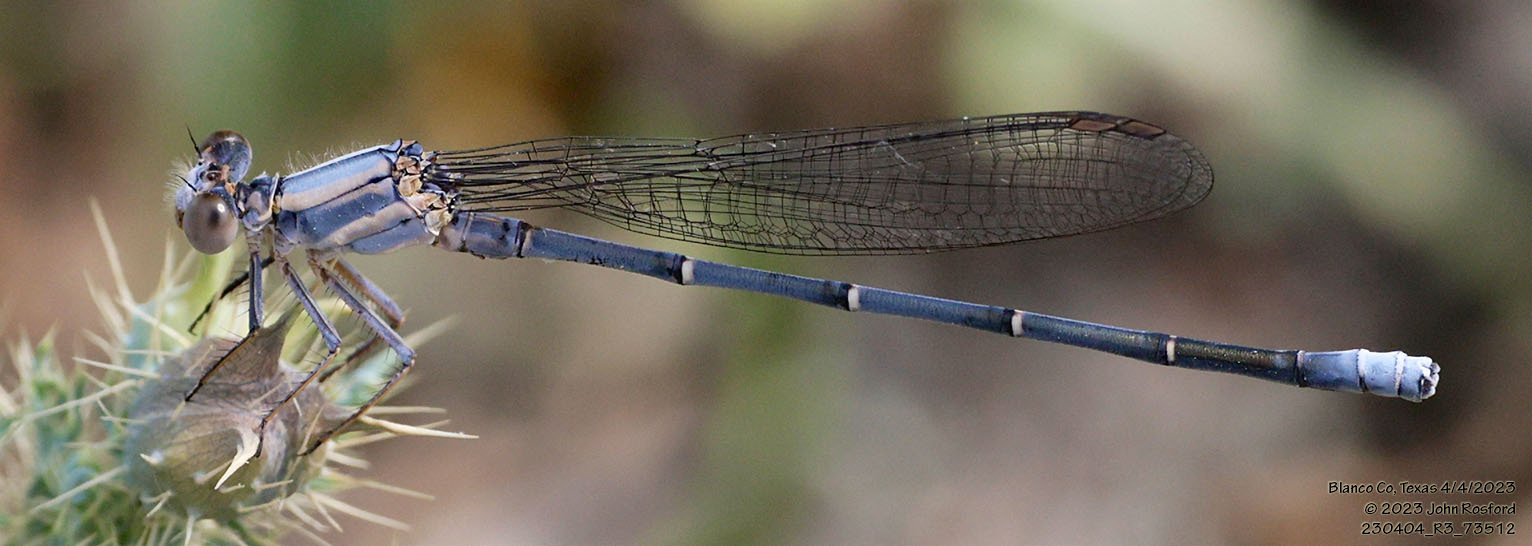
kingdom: Animalia
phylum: Arthropoda
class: Insecta
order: Odonata
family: Coenagrionidae
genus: Argia
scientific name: Argia moesta
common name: Powdered dancer
